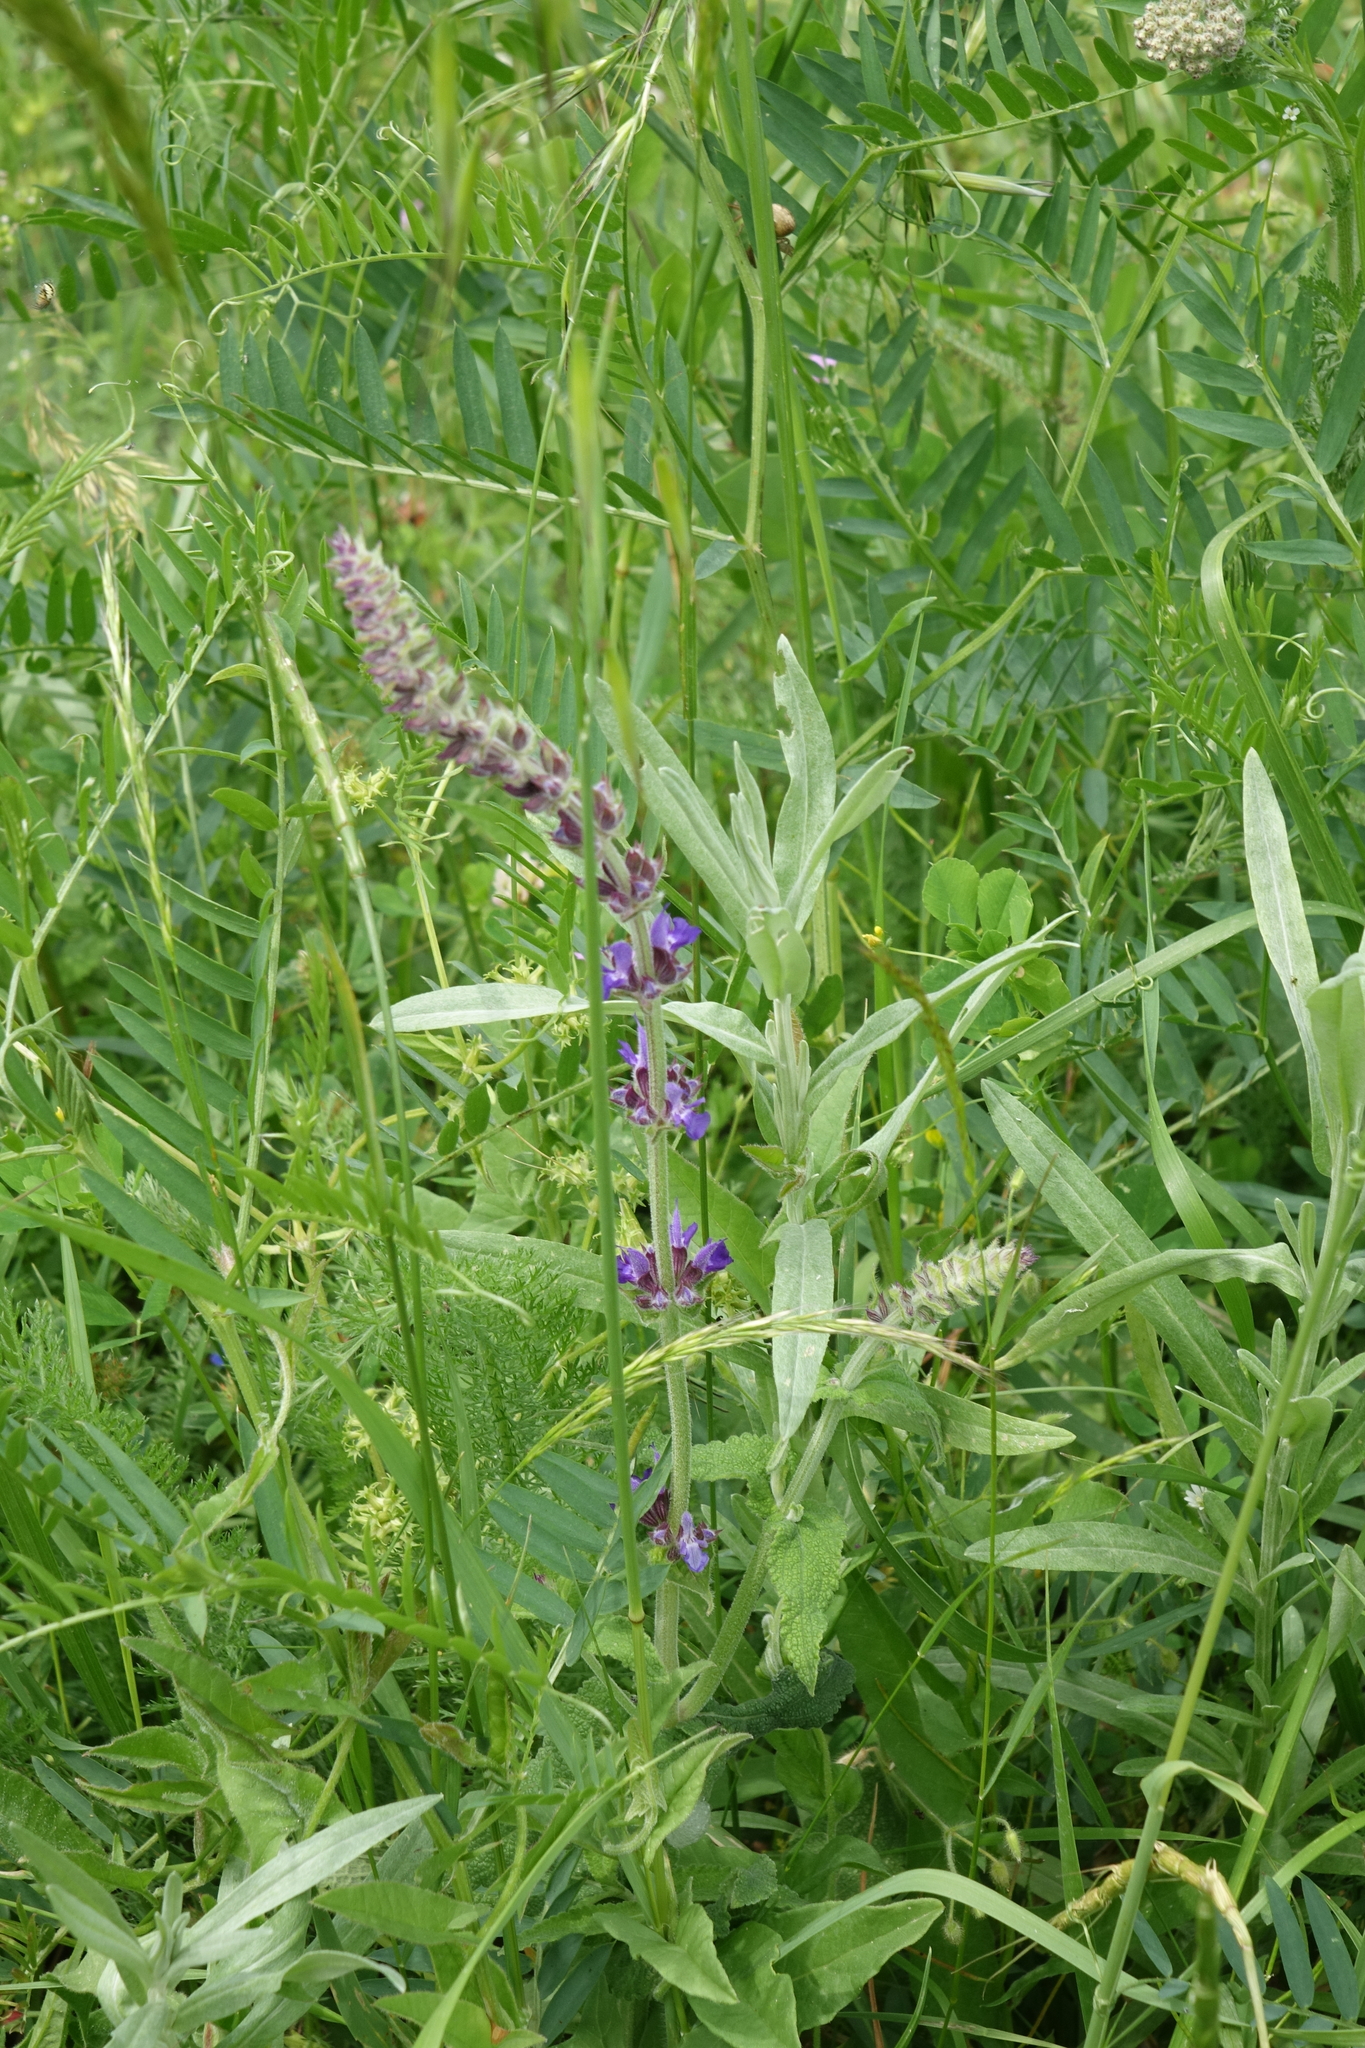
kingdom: Plantae
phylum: Tracheophyta
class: Magnoliopsida
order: Lamiales
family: Lamiaceae
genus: Salvia
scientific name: Salvia nemorosa
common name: Balkan clary
